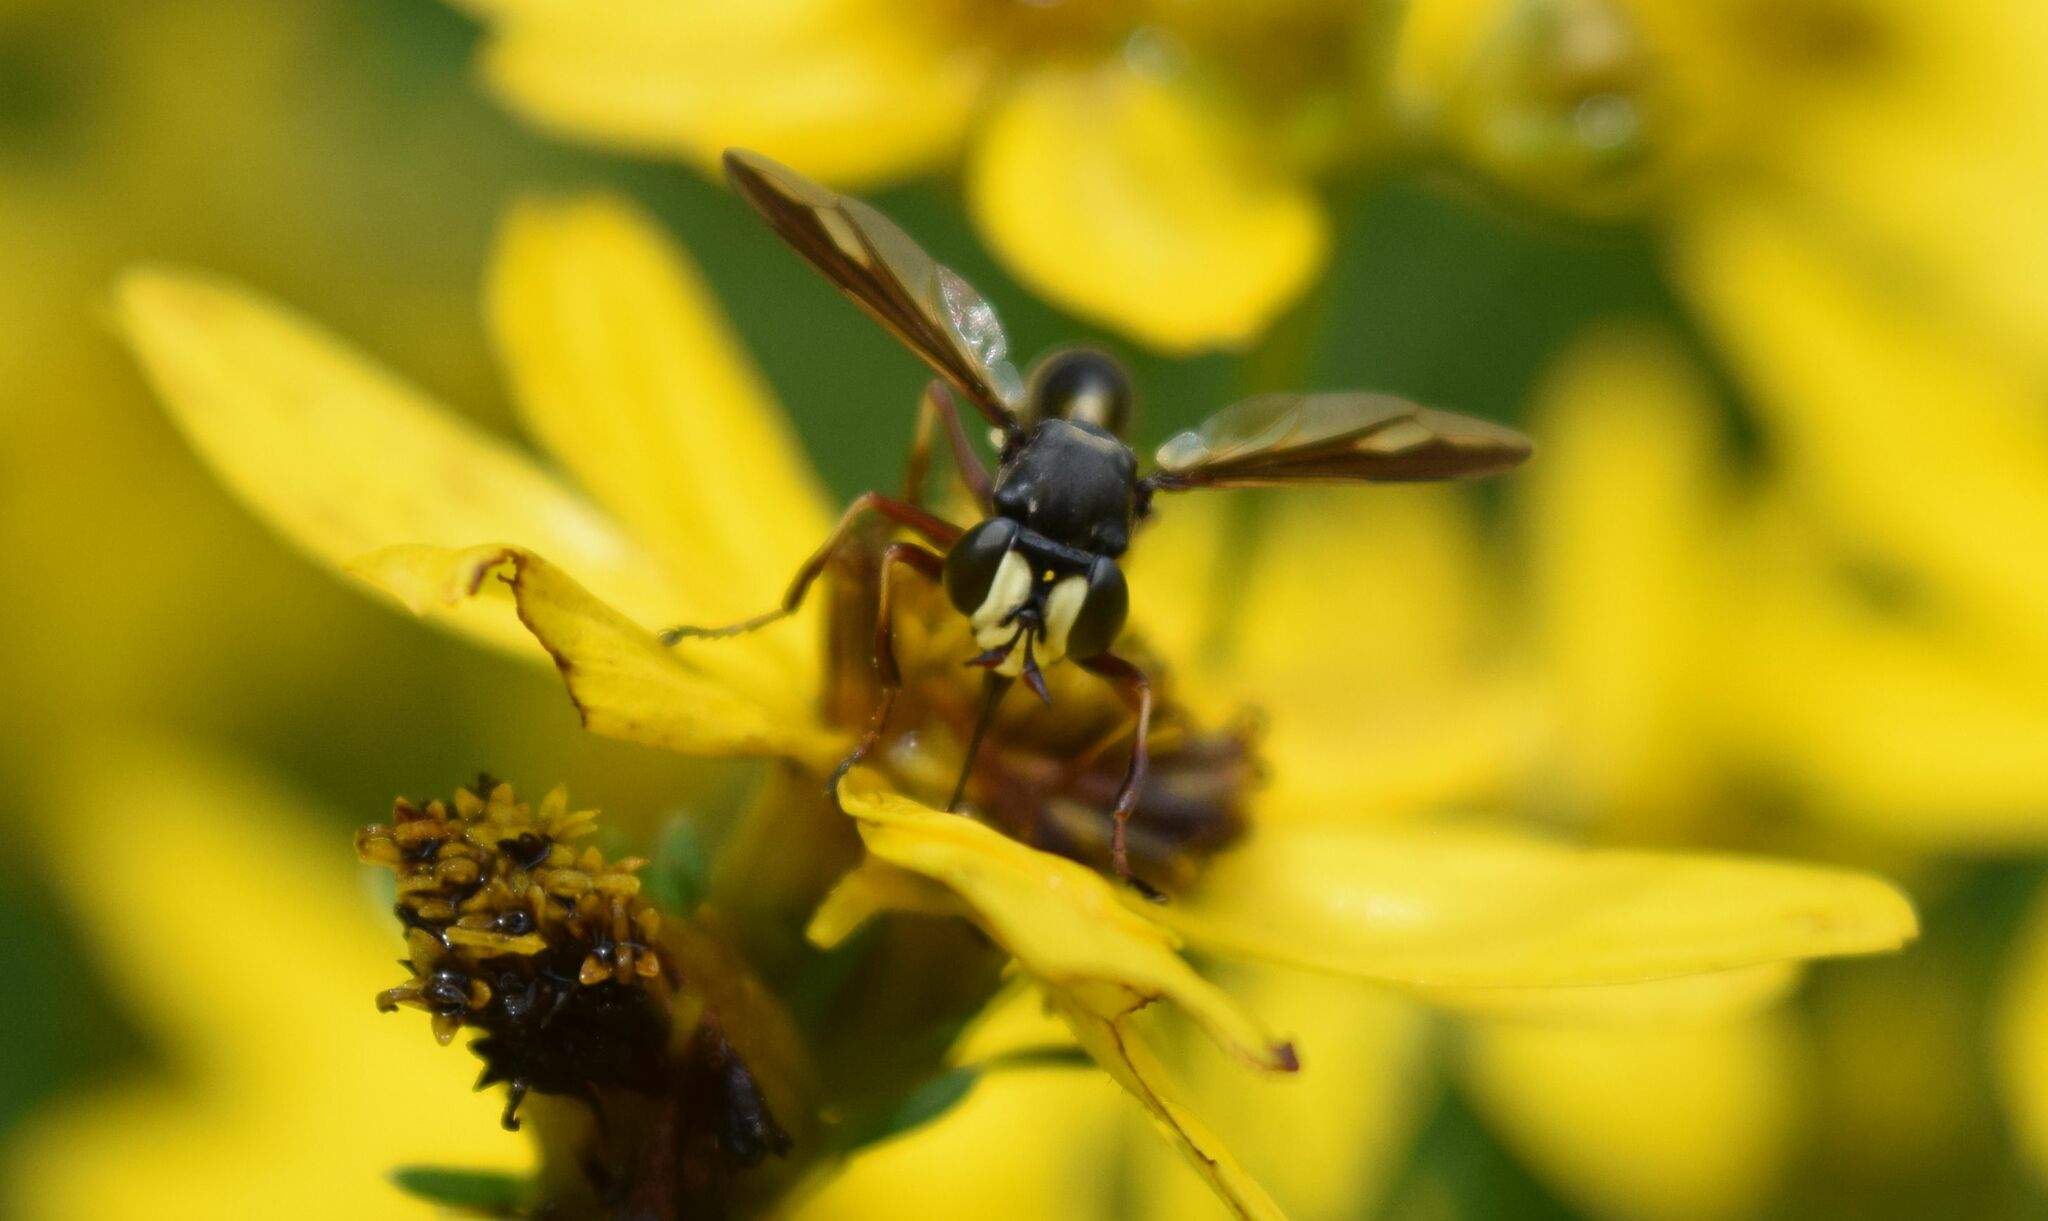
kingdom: Animalia
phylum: Arthropoda
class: Insecta
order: Diptera
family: Conopidae
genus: Physocephala
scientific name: Physocephala furcillata
